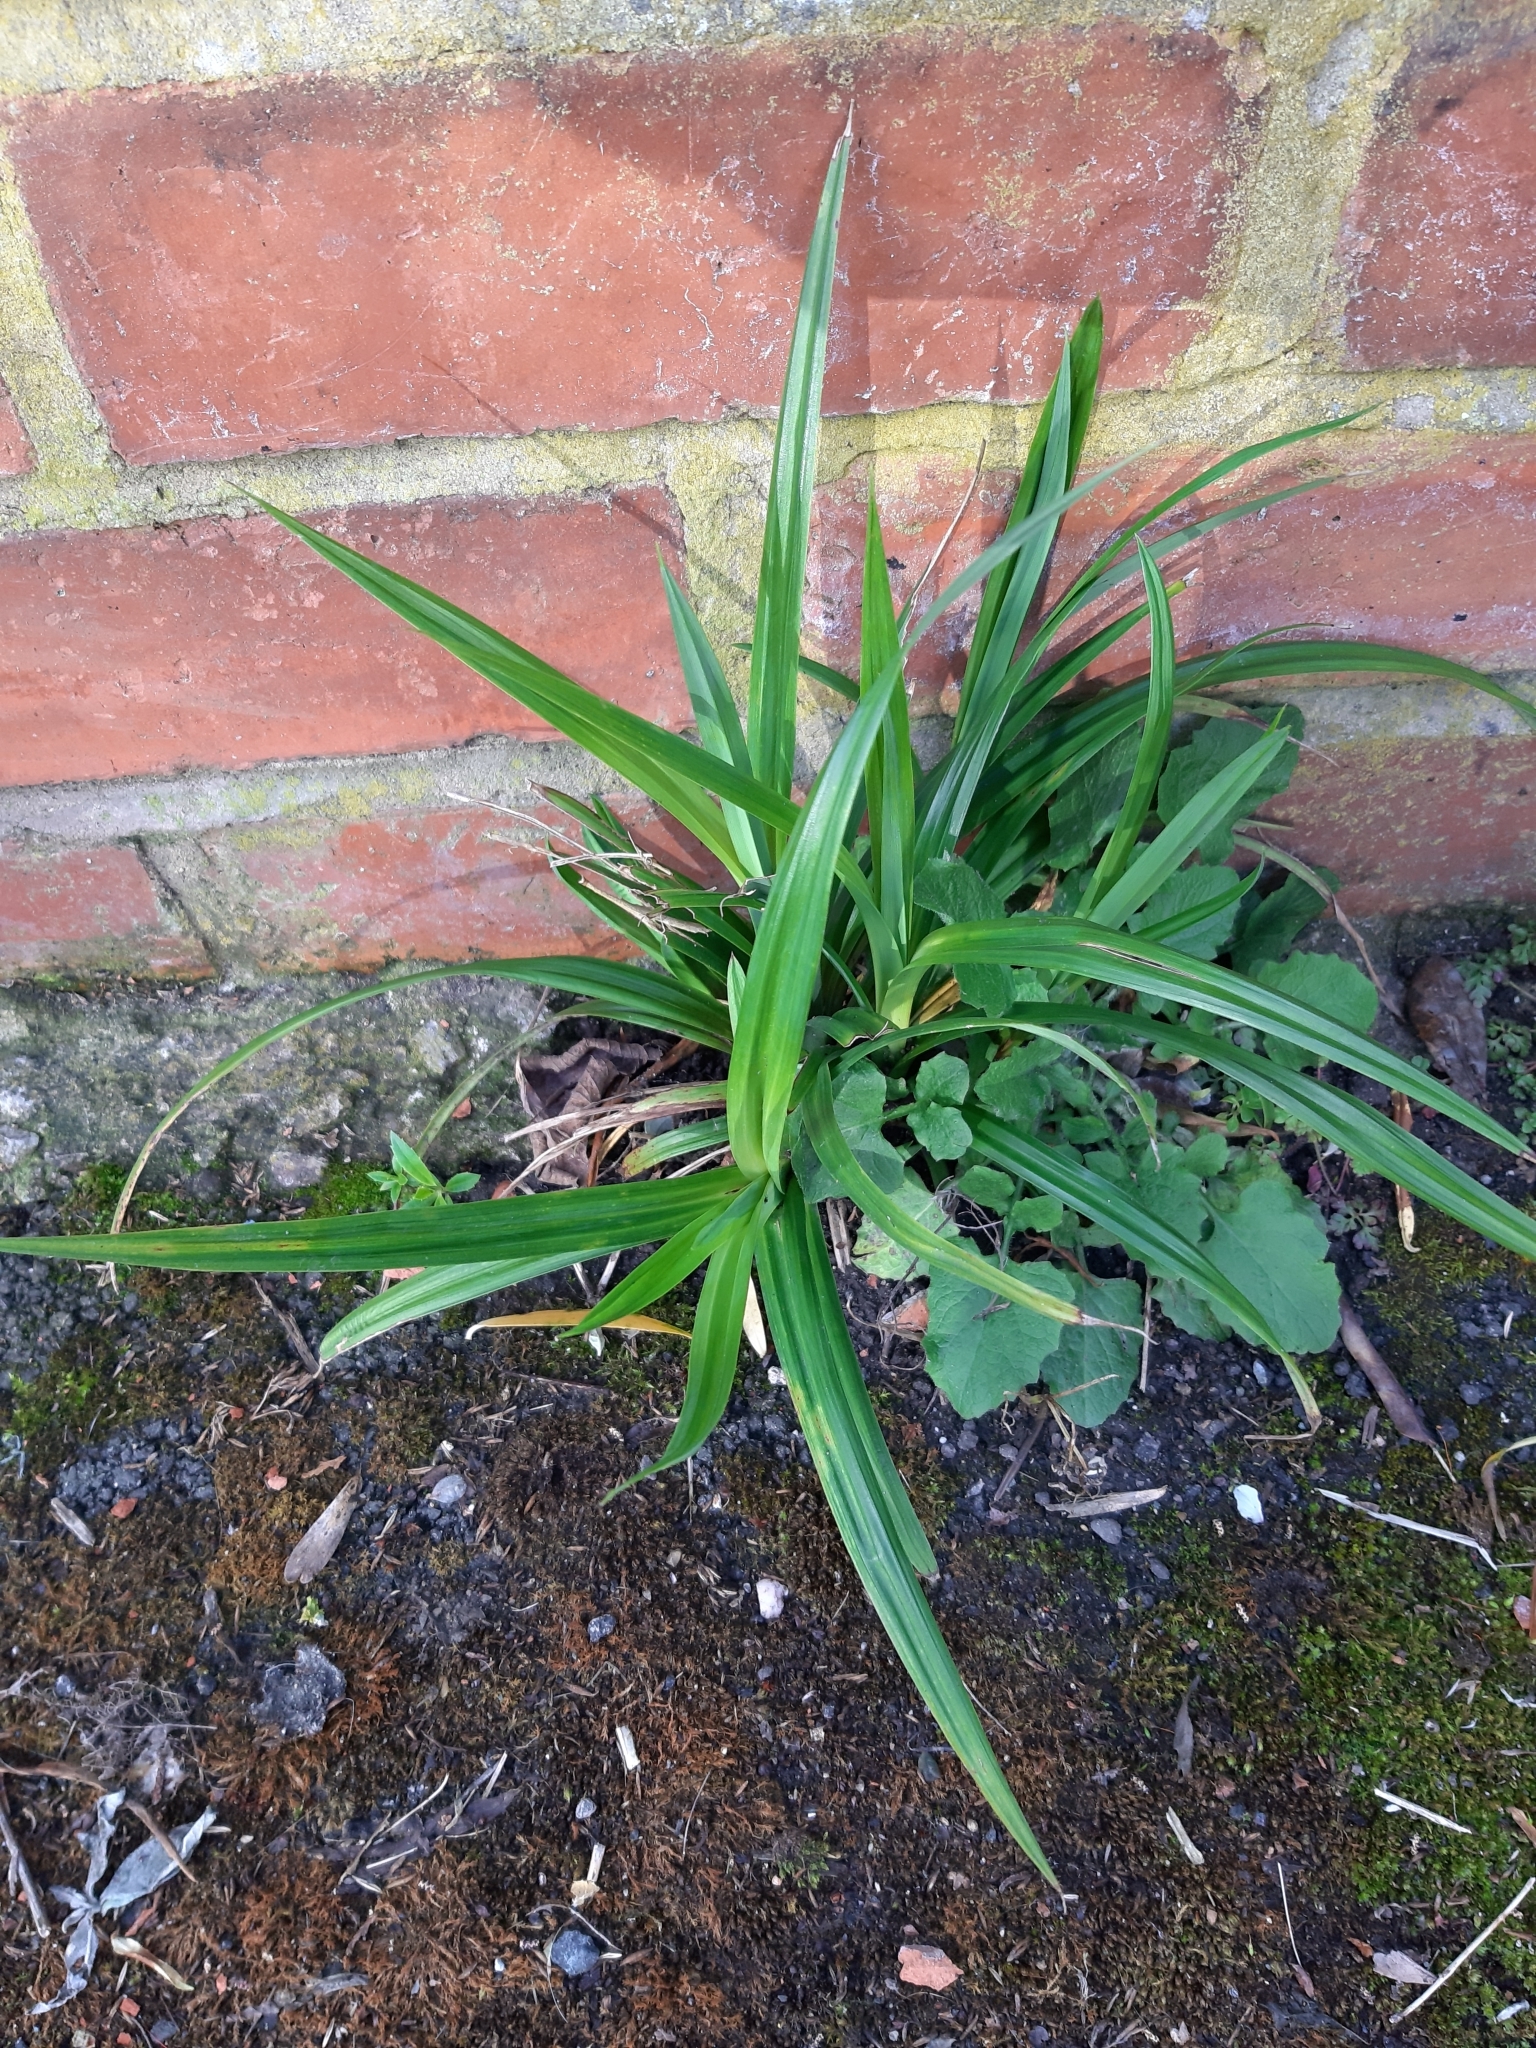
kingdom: Plantae
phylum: Tracheophyta
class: Liliopsida
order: Poales
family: Cyperaceae
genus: Carex
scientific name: Carex pendula
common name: Pendulous sedge
